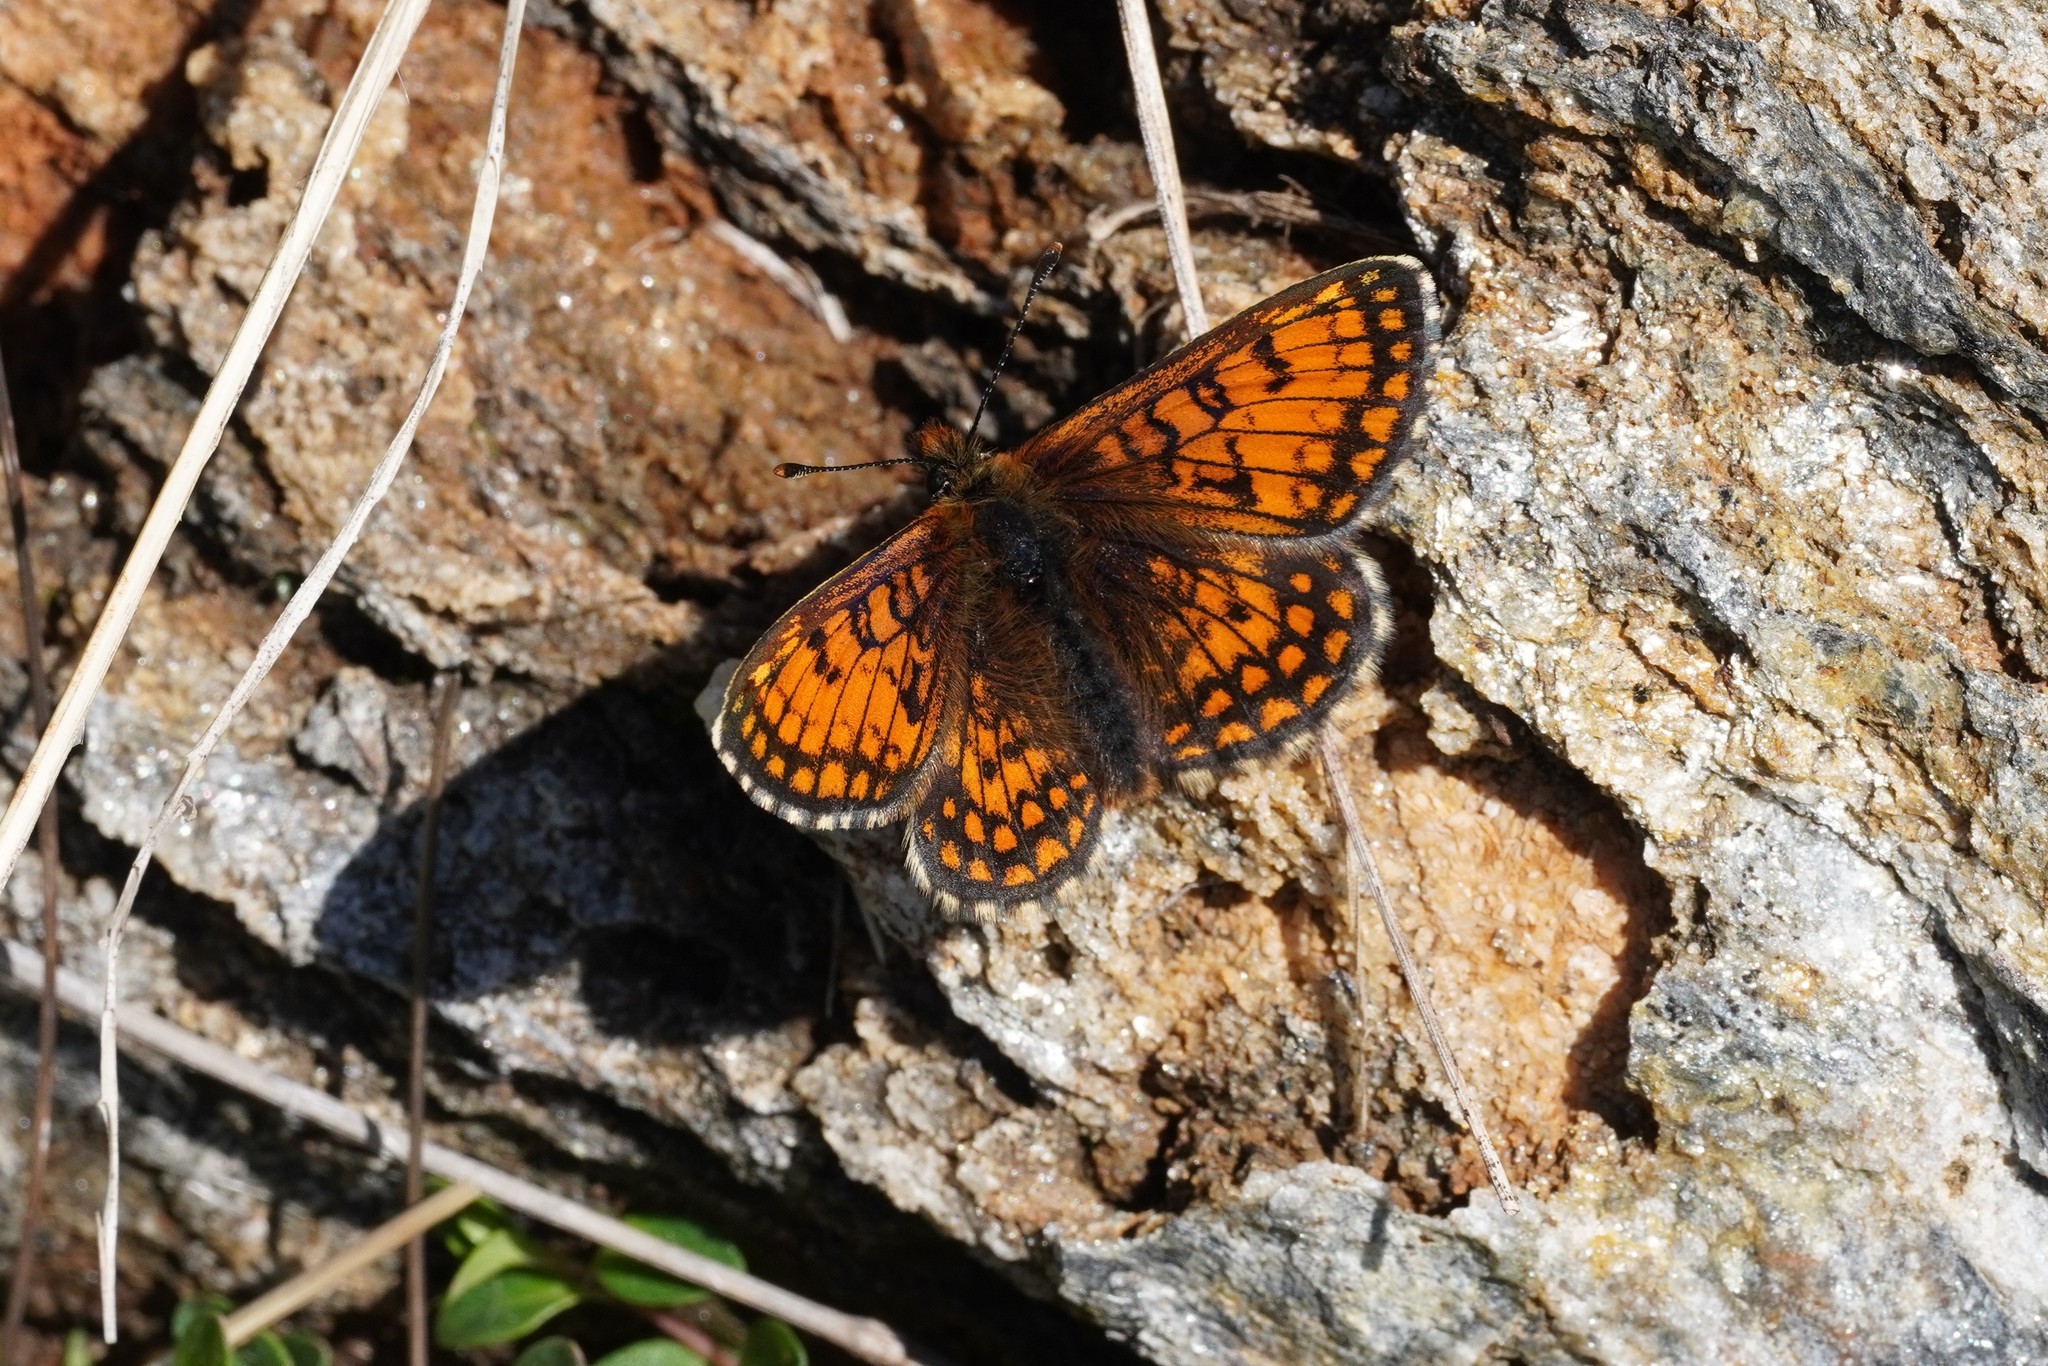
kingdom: Animalia
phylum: Arthropoda
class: Insecta
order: Lepidoptera
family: Nymphalidae
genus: Melitaea
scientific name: Melitaea varia
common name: Grisons fritillary
